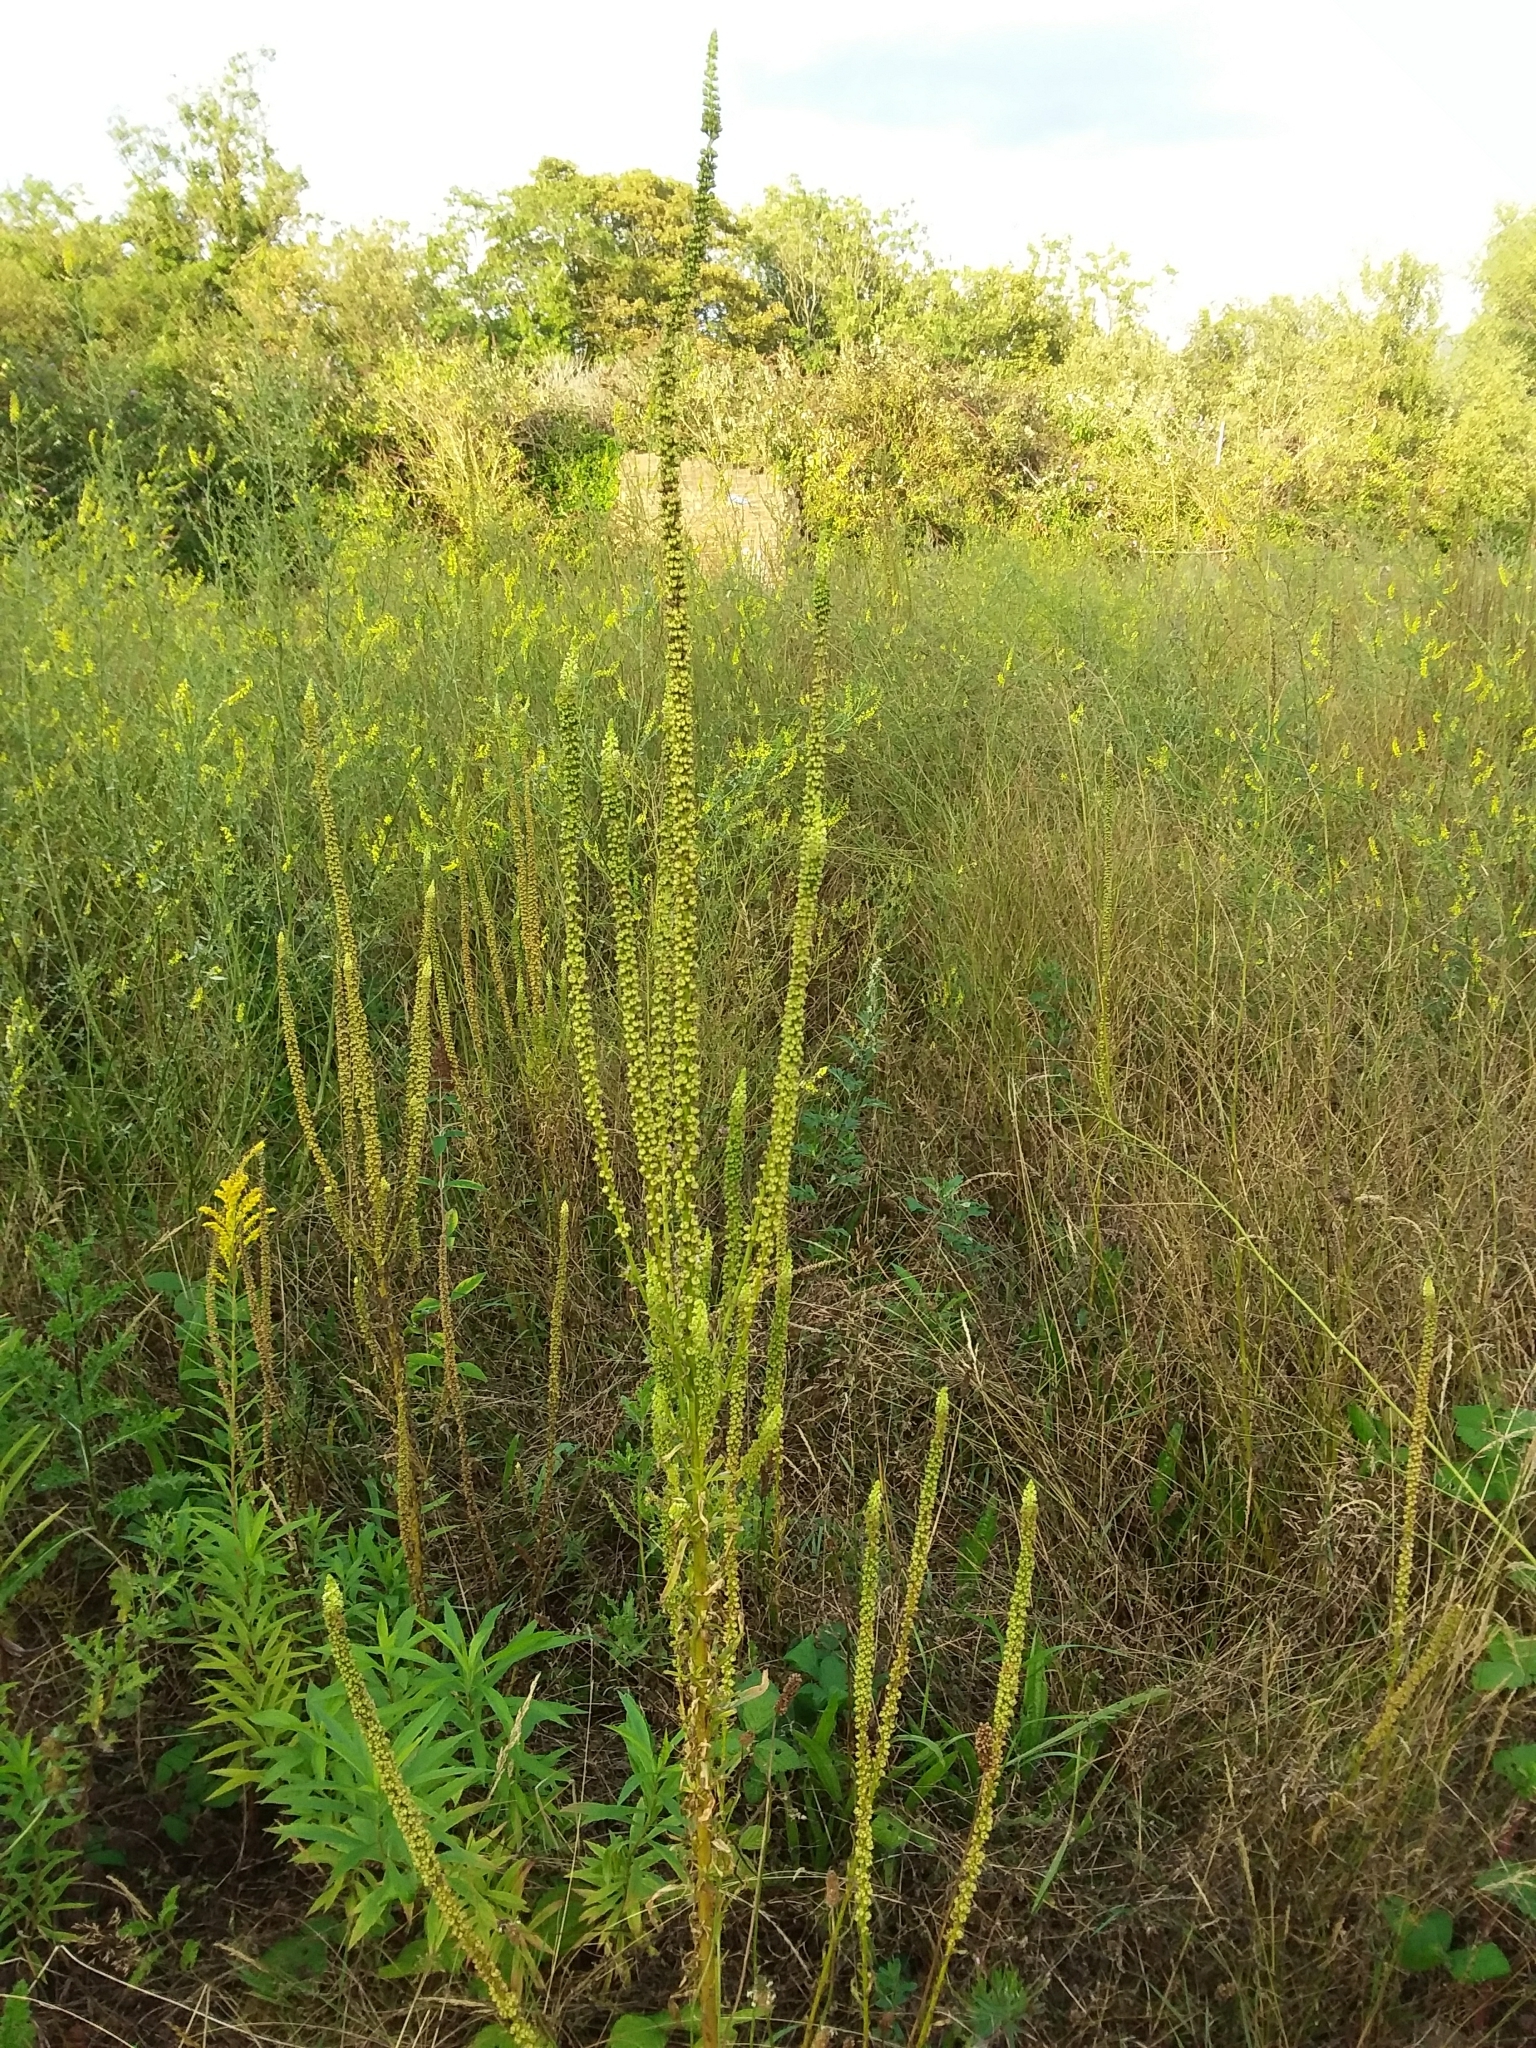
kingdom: Plantae
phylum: Tracheophyta
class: Magnoliopsida
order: Brassicales
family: Resedaceae
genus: Reseda
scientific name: Reseda luteola
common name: Weld
